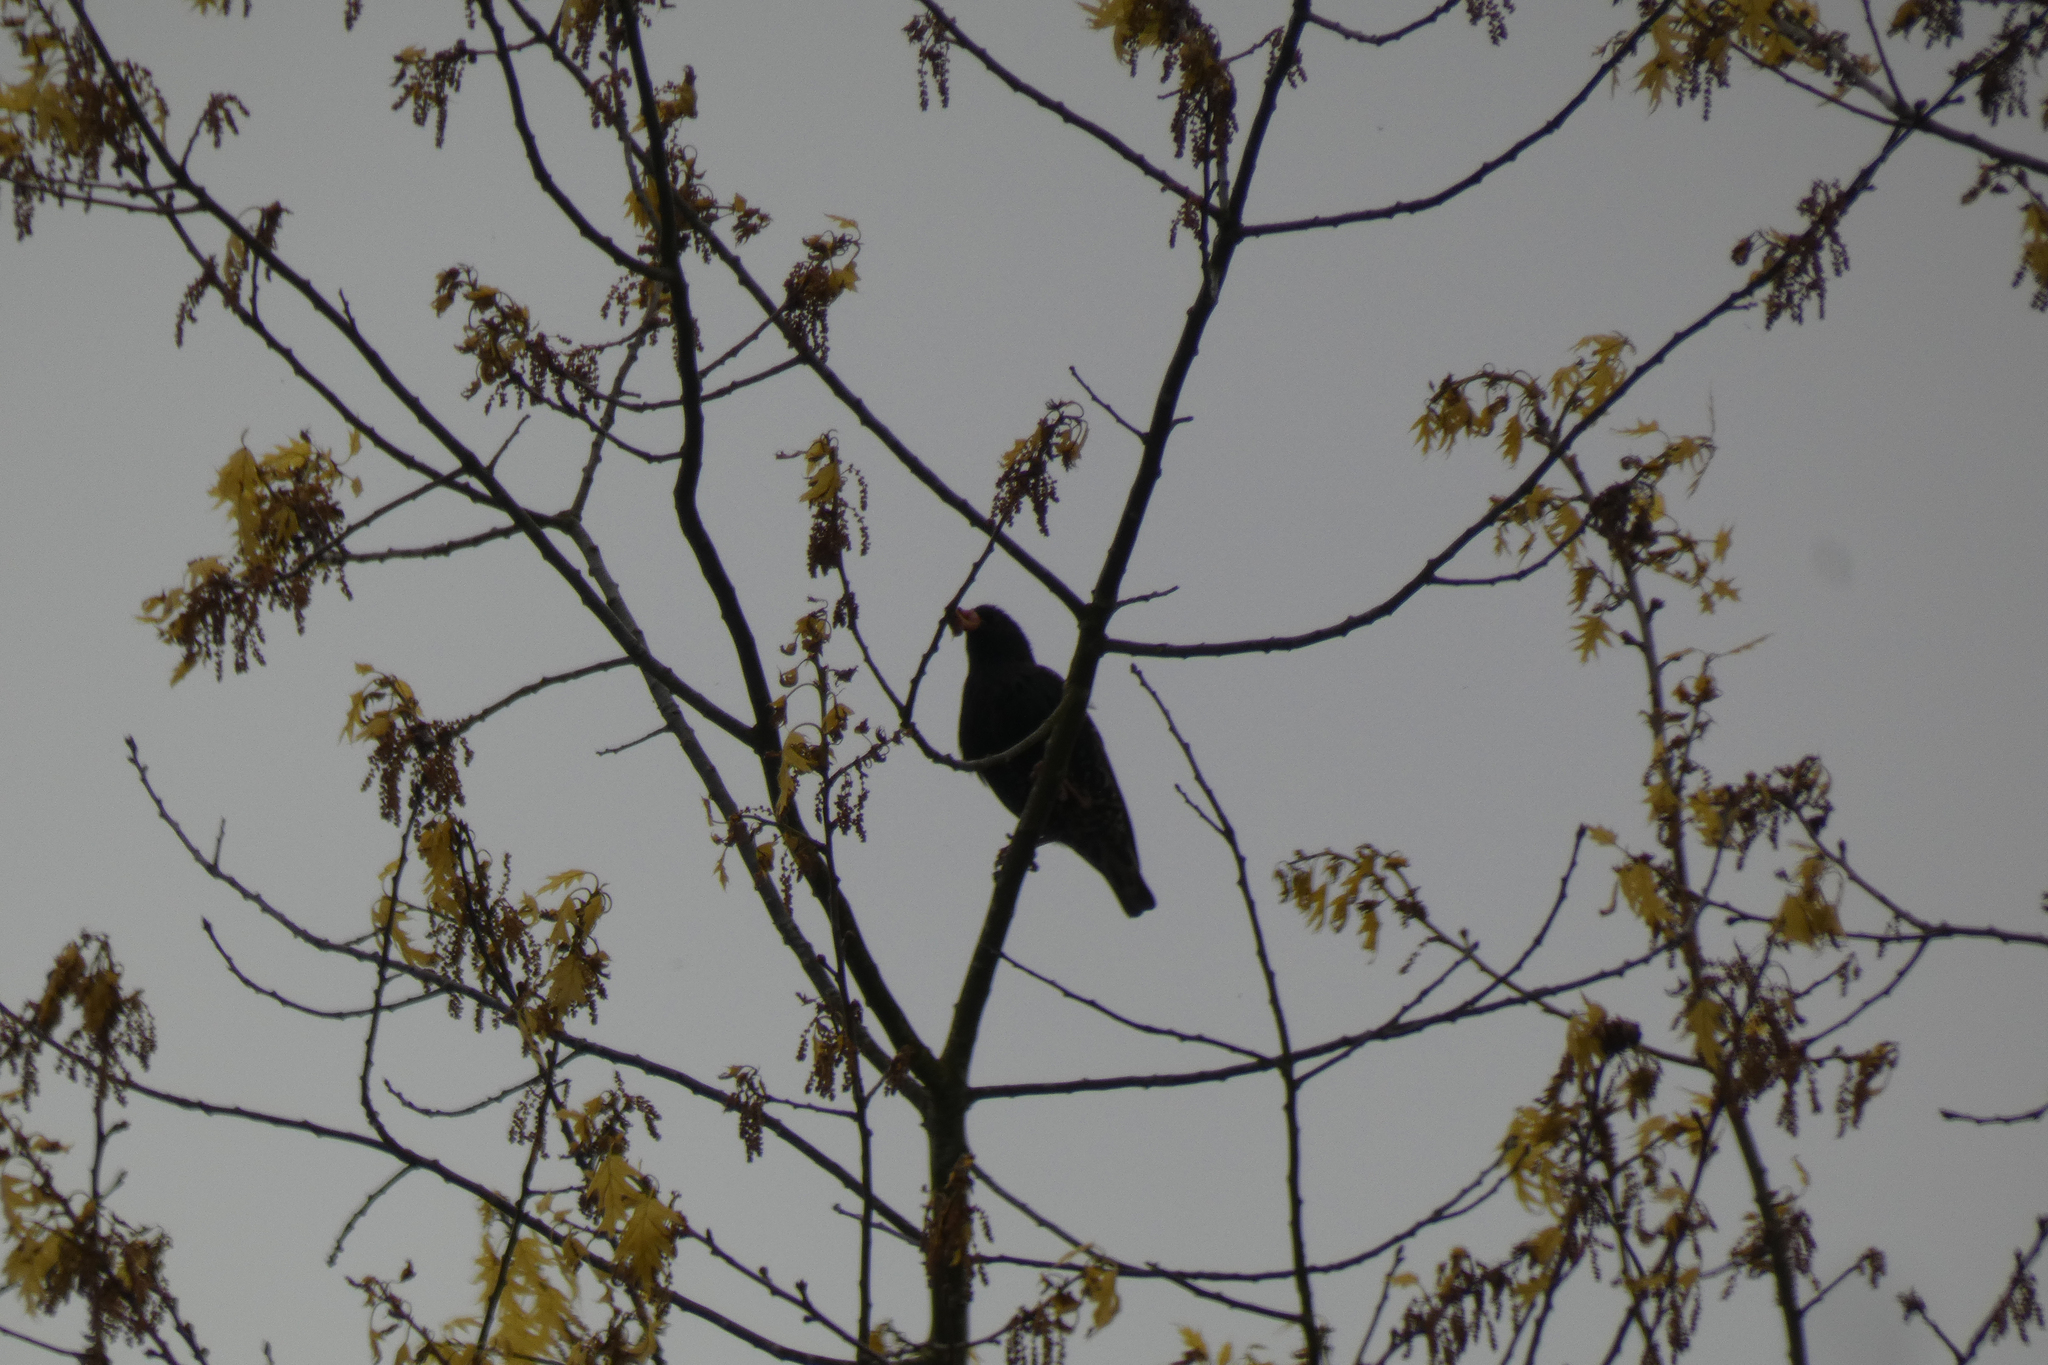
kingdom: Animalia
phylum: Chordata
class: Aves
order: Passeriformes
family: Sturnidae
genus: Sturnus
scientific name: Sturnus vulgaris
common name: Common starling
